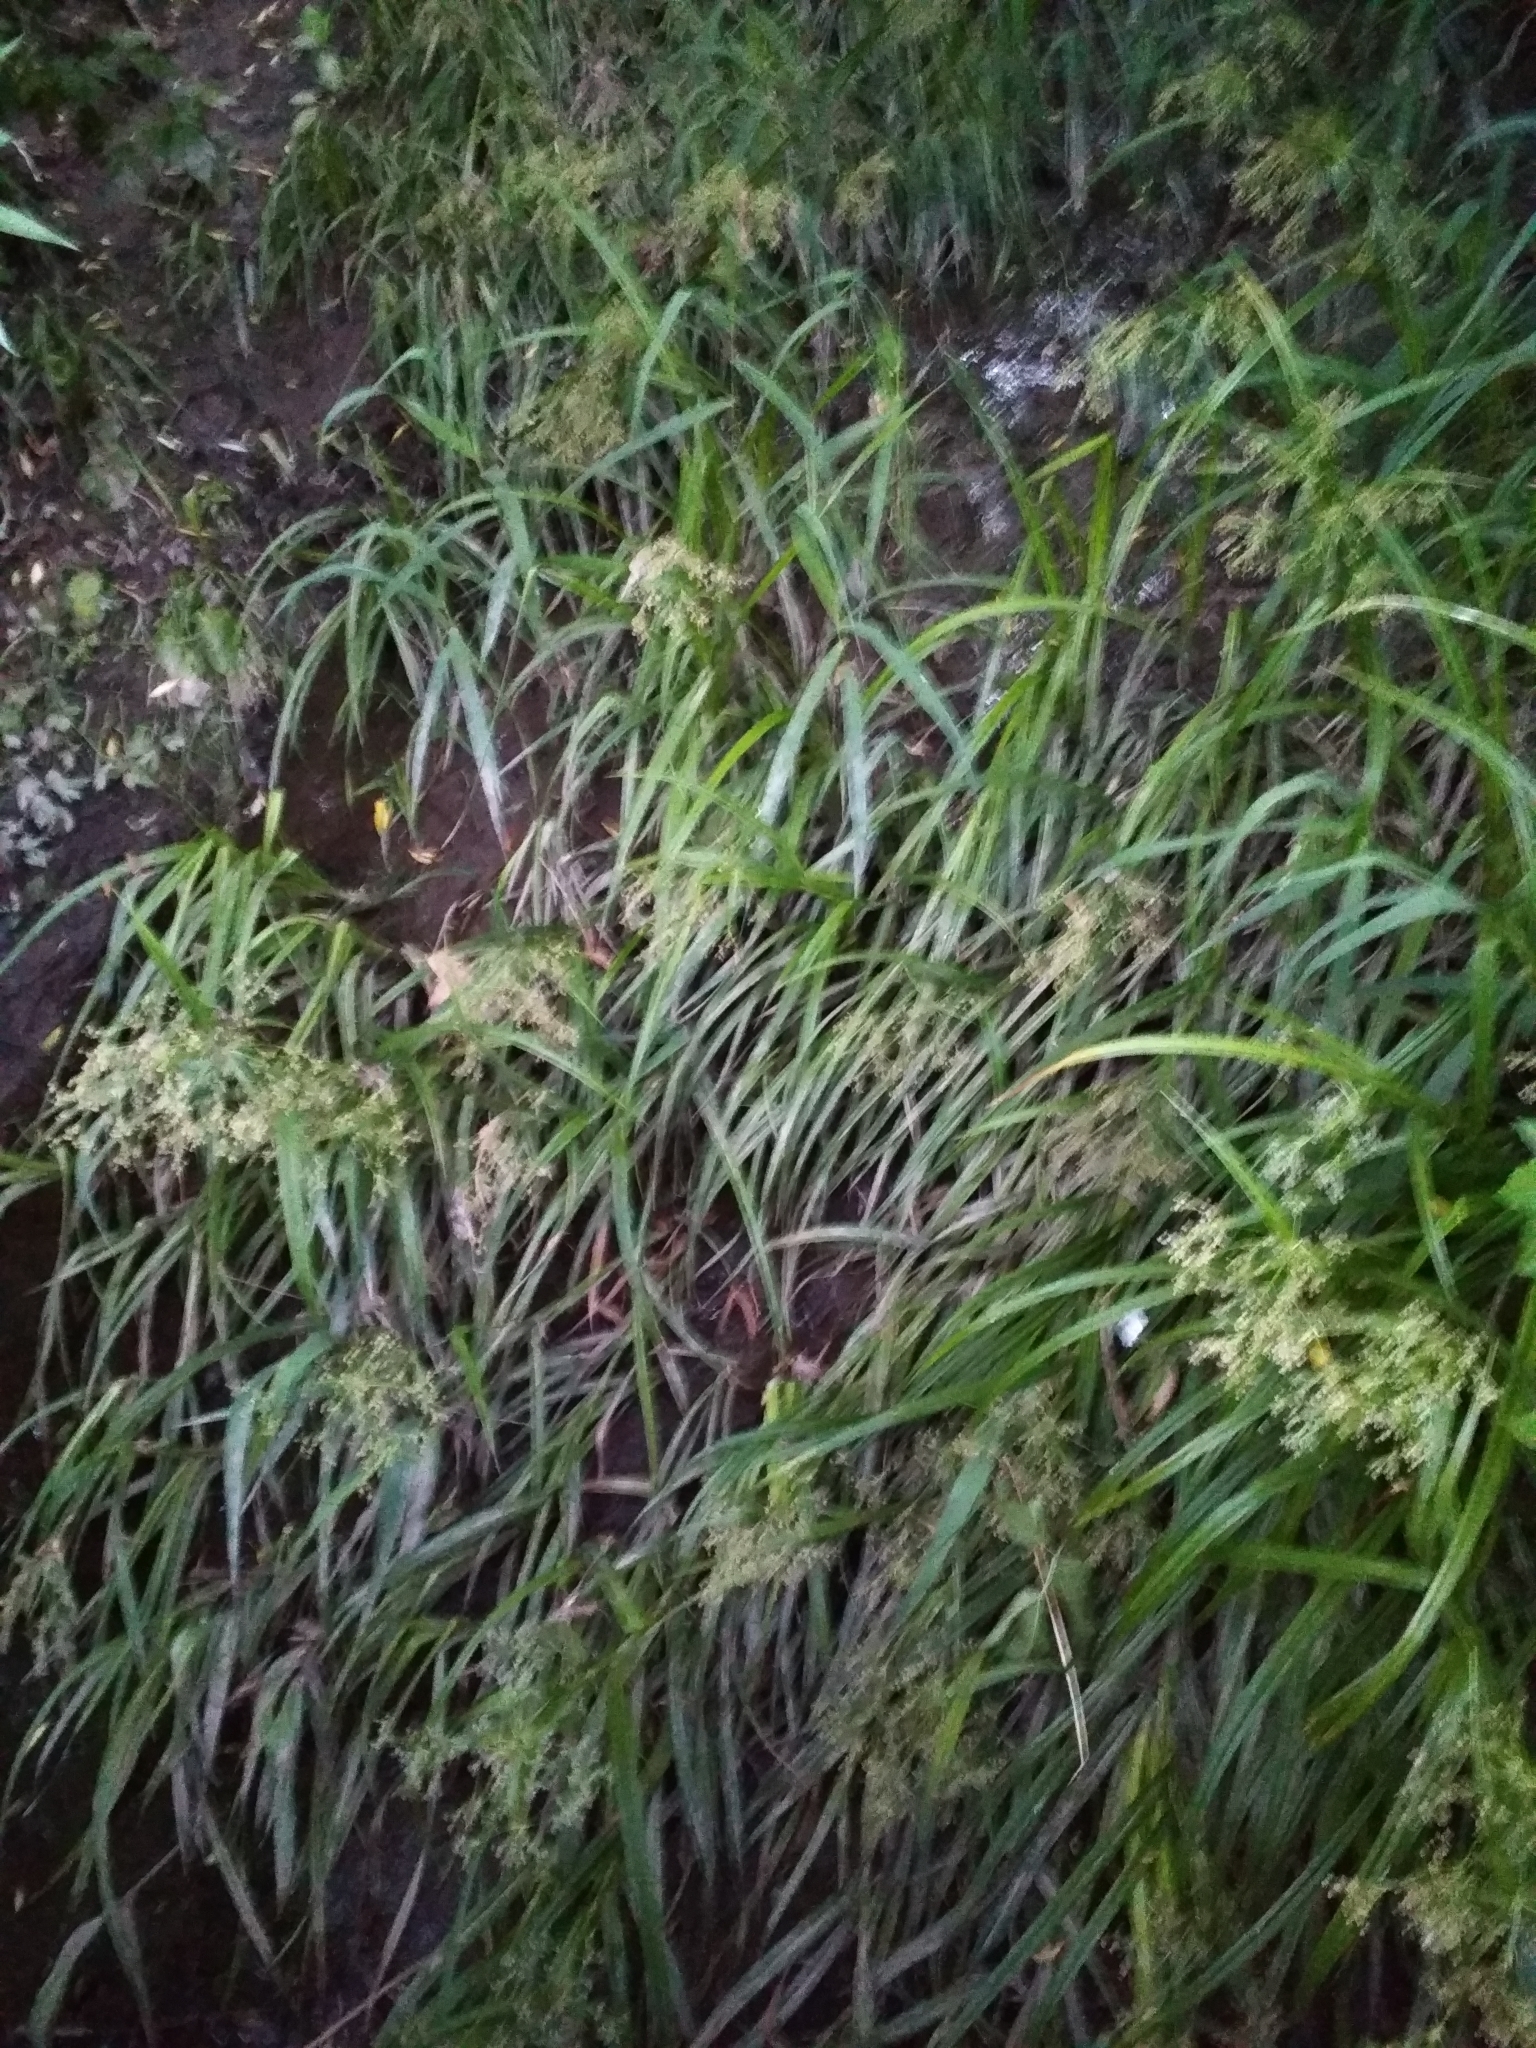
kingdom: Plantae
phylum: Tracheophyta
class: Liliopsida
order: Poales
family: Cyperaceae
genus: Scirpus
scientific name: Scirpus sylvaticus
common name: Wood club-rush
